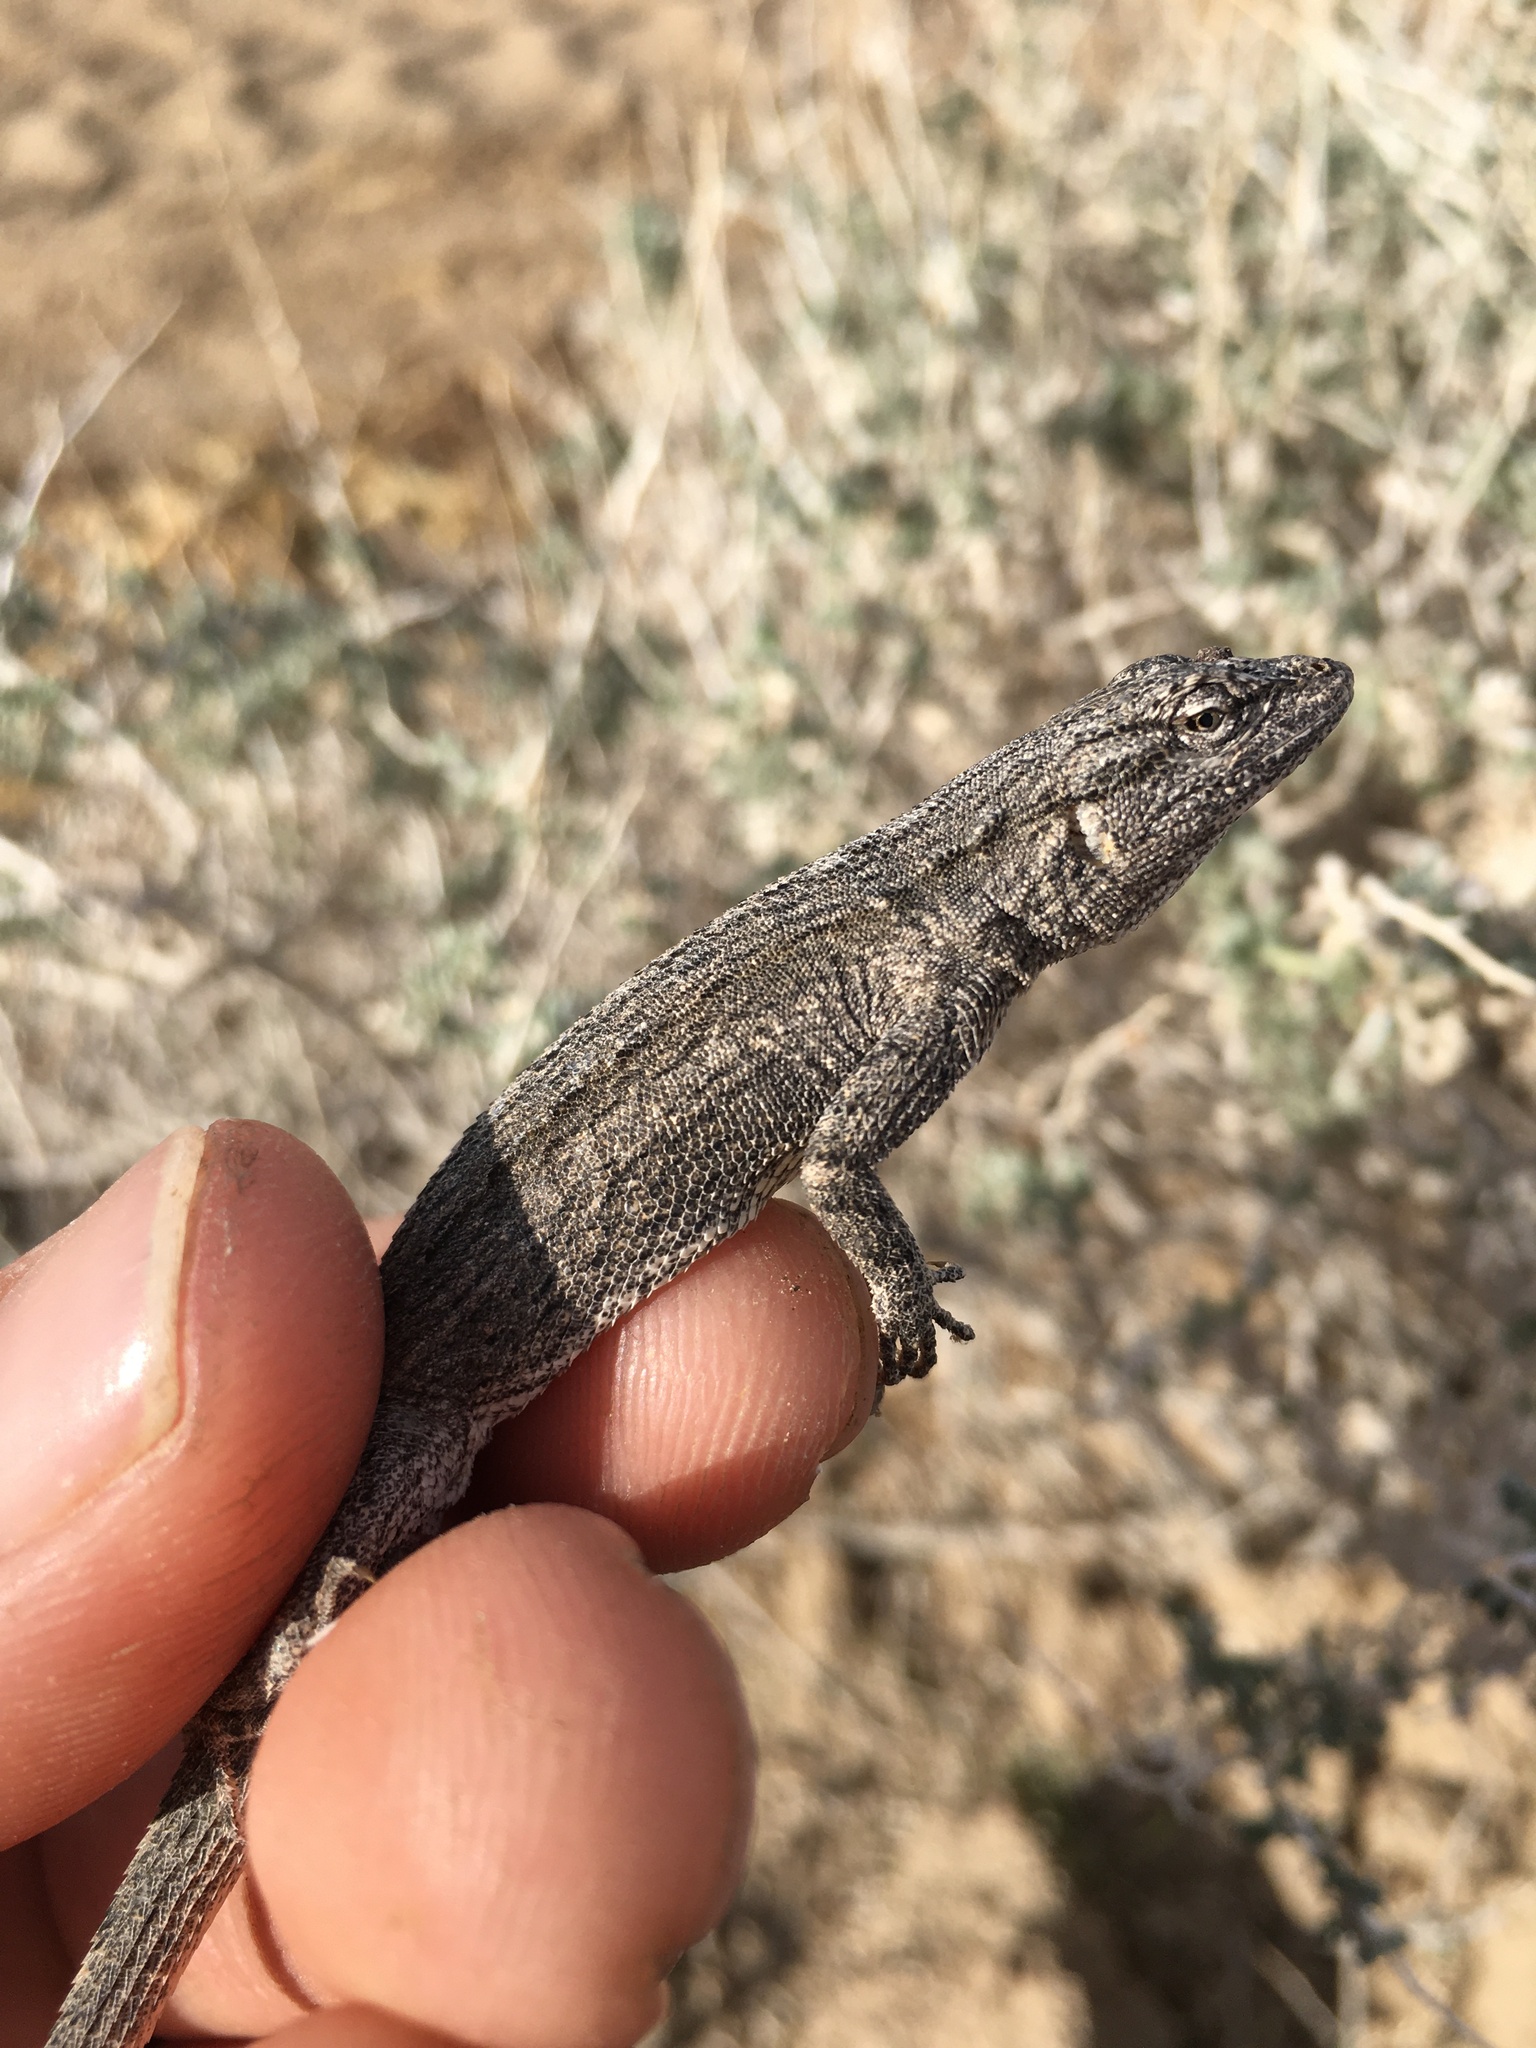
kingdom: Animalia
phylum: Chordata
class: Squamata
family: Phrynosomatidae
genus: Urosaurus
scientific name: Urosaurus graciosus
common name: Long-tailed brush lizard
